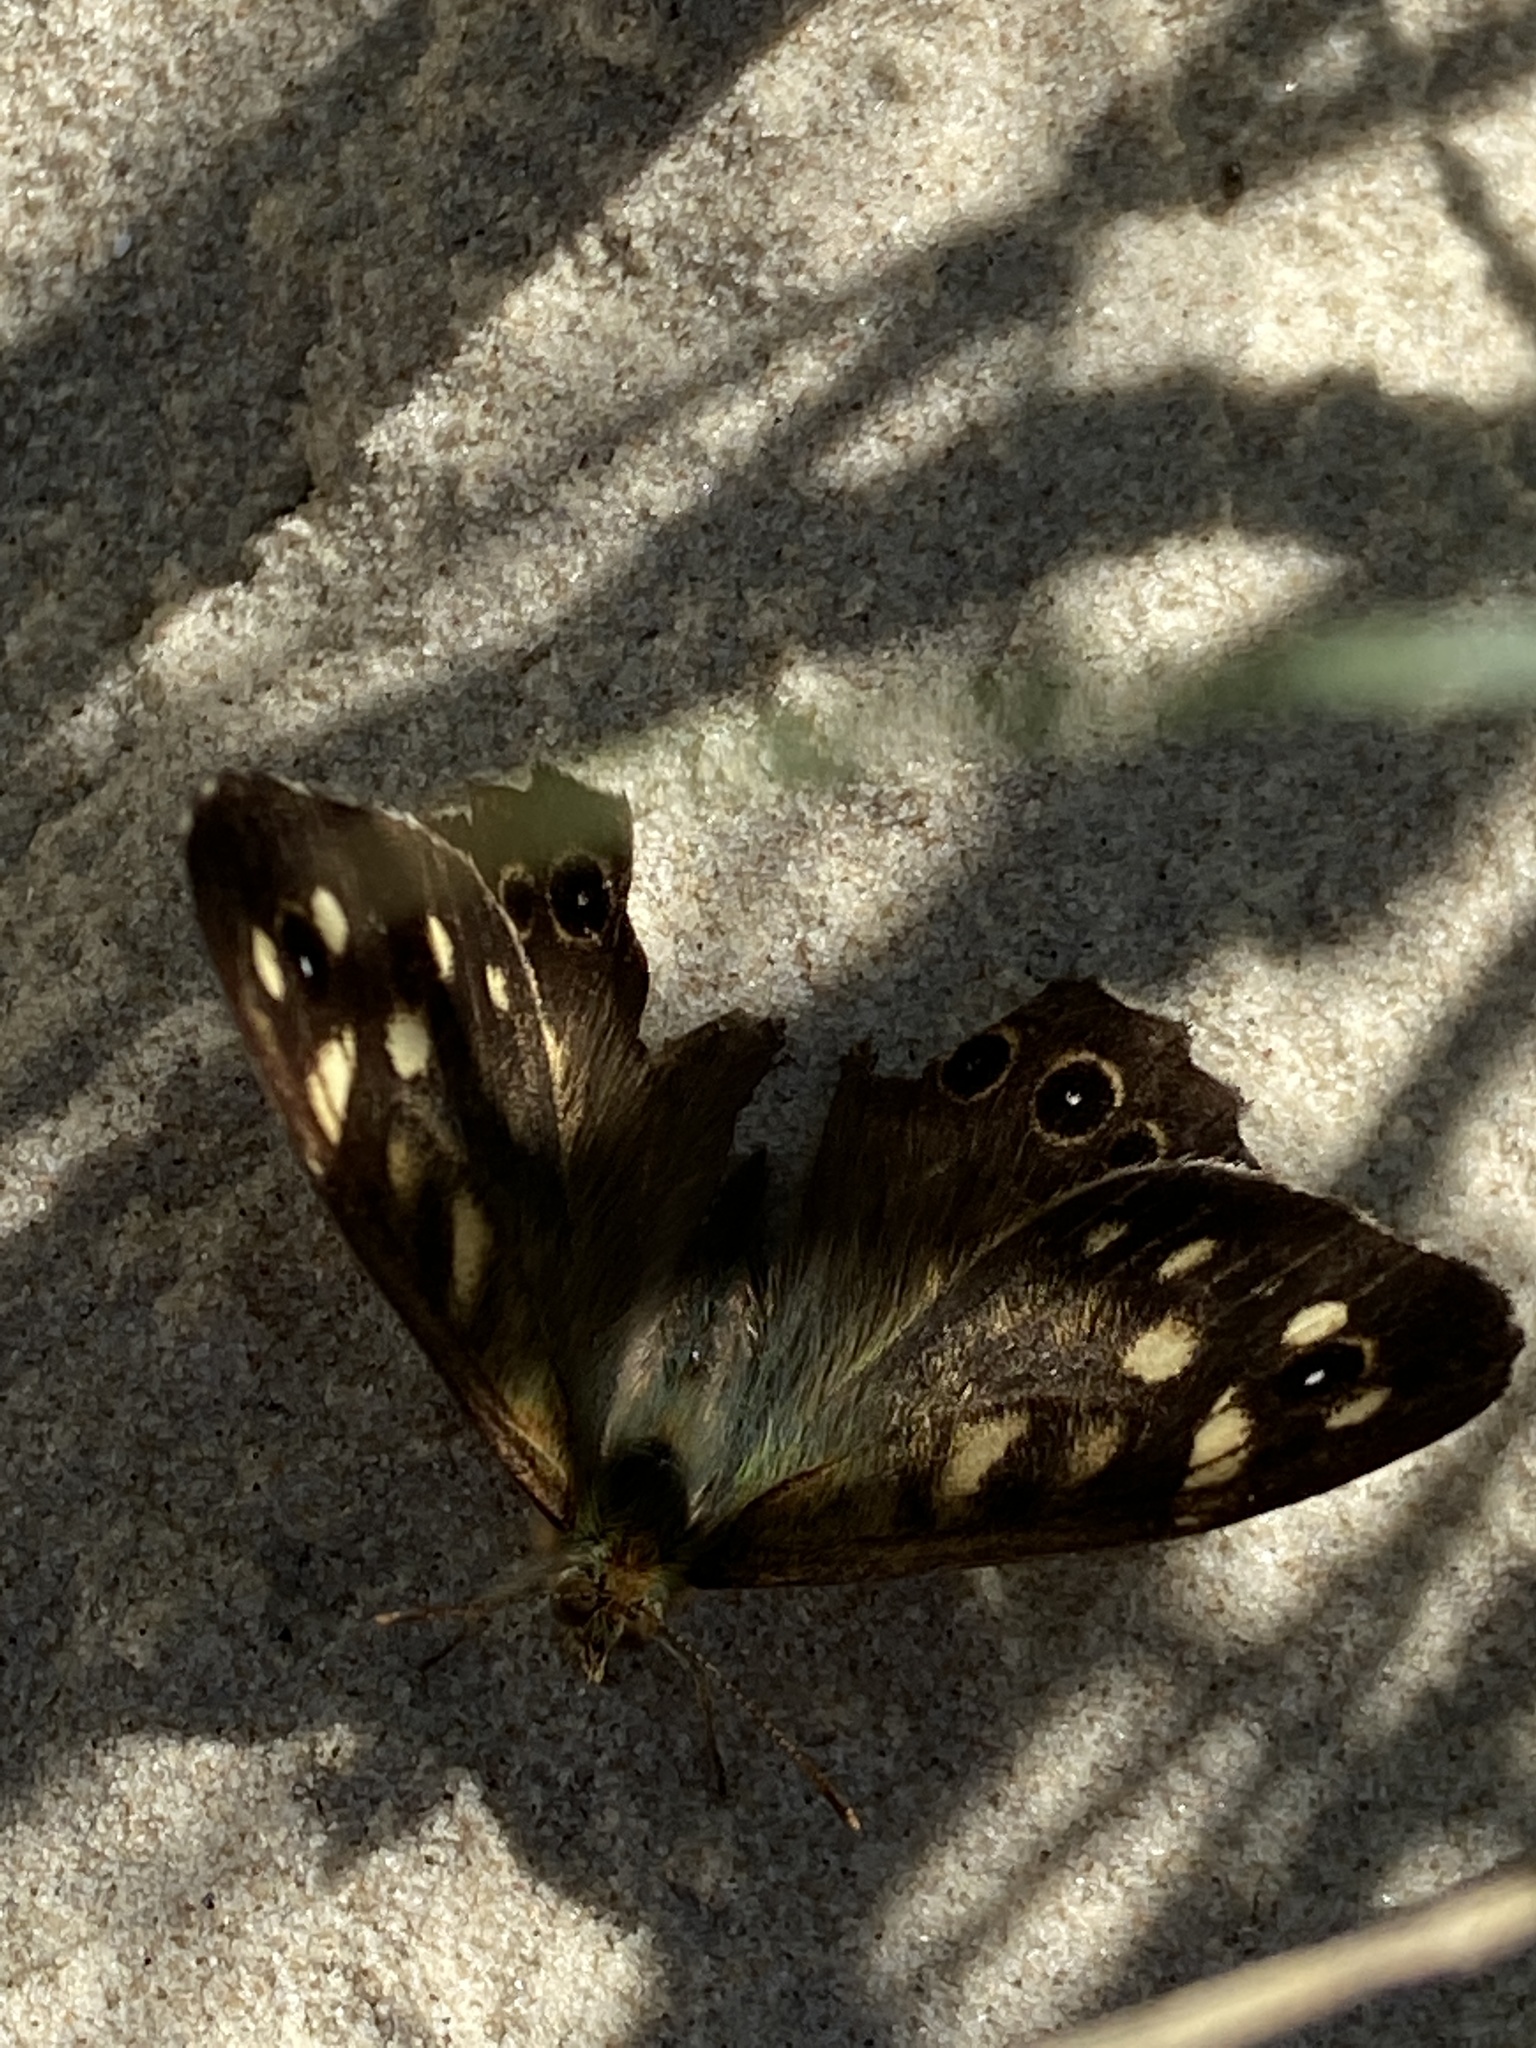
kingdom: Animalia
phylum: Arthropoda
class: Insecta
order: Lepidoptera
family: Nymphalidae
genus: Pararge
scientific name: Pararge aegeria
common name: Speckled wood
